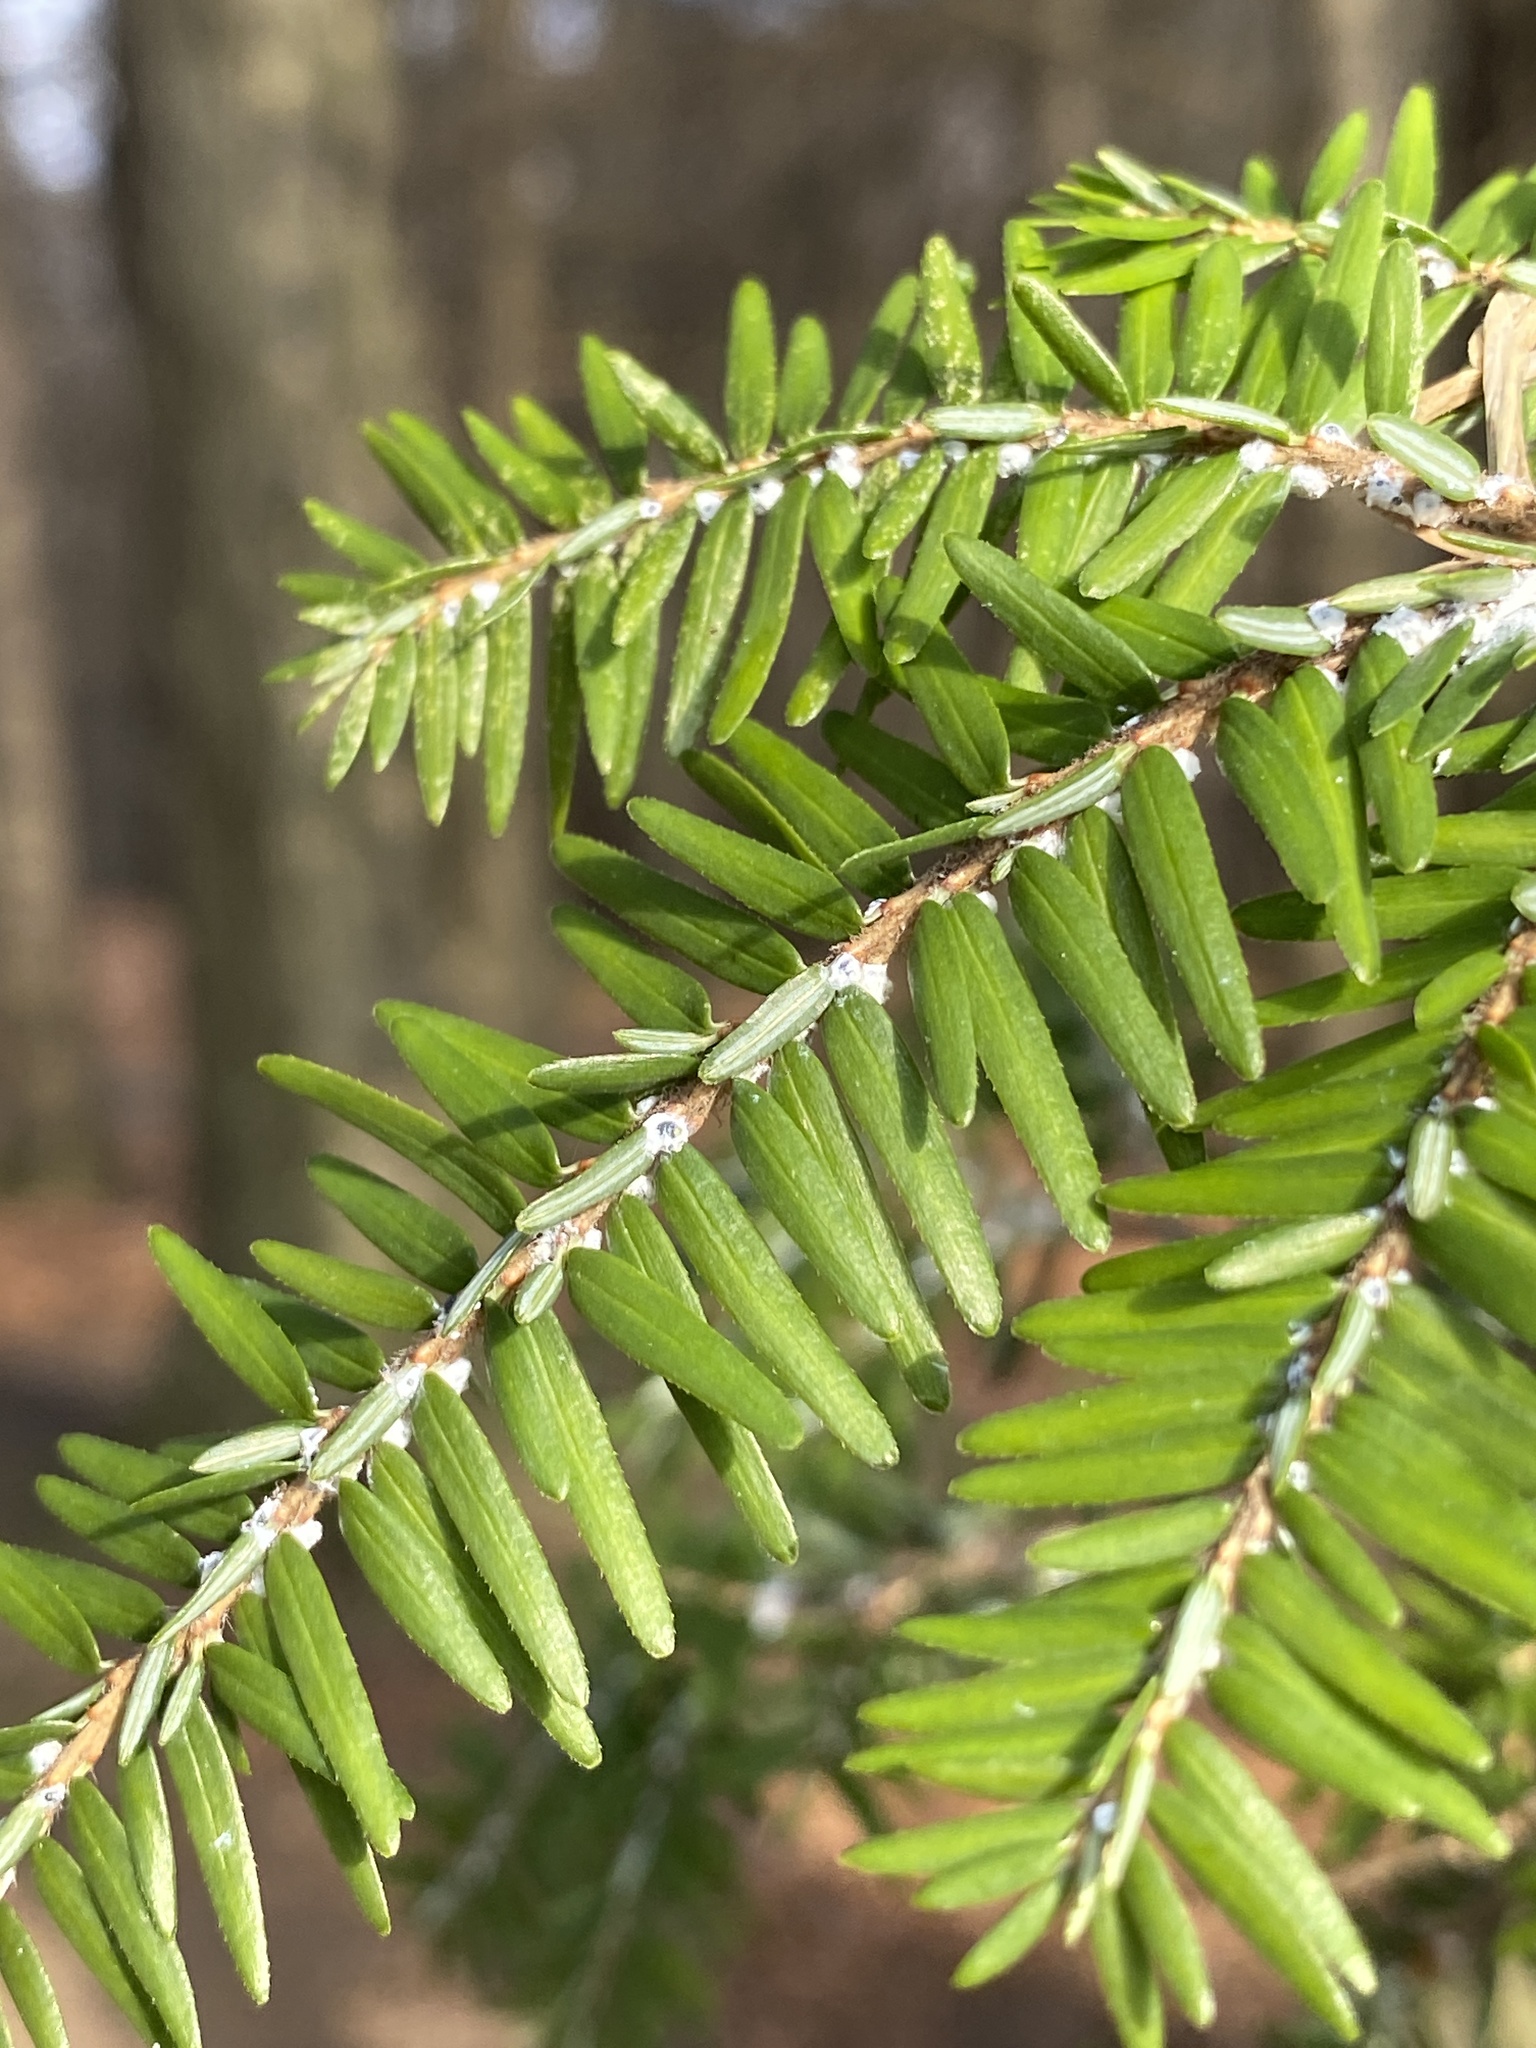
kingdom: Animalia
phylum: Arthropoda
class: Insecta
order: Hemiptera
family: Adelgidae
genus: Adelges
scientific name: Adelges tsugae
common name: Hemlock woolly adelgid
